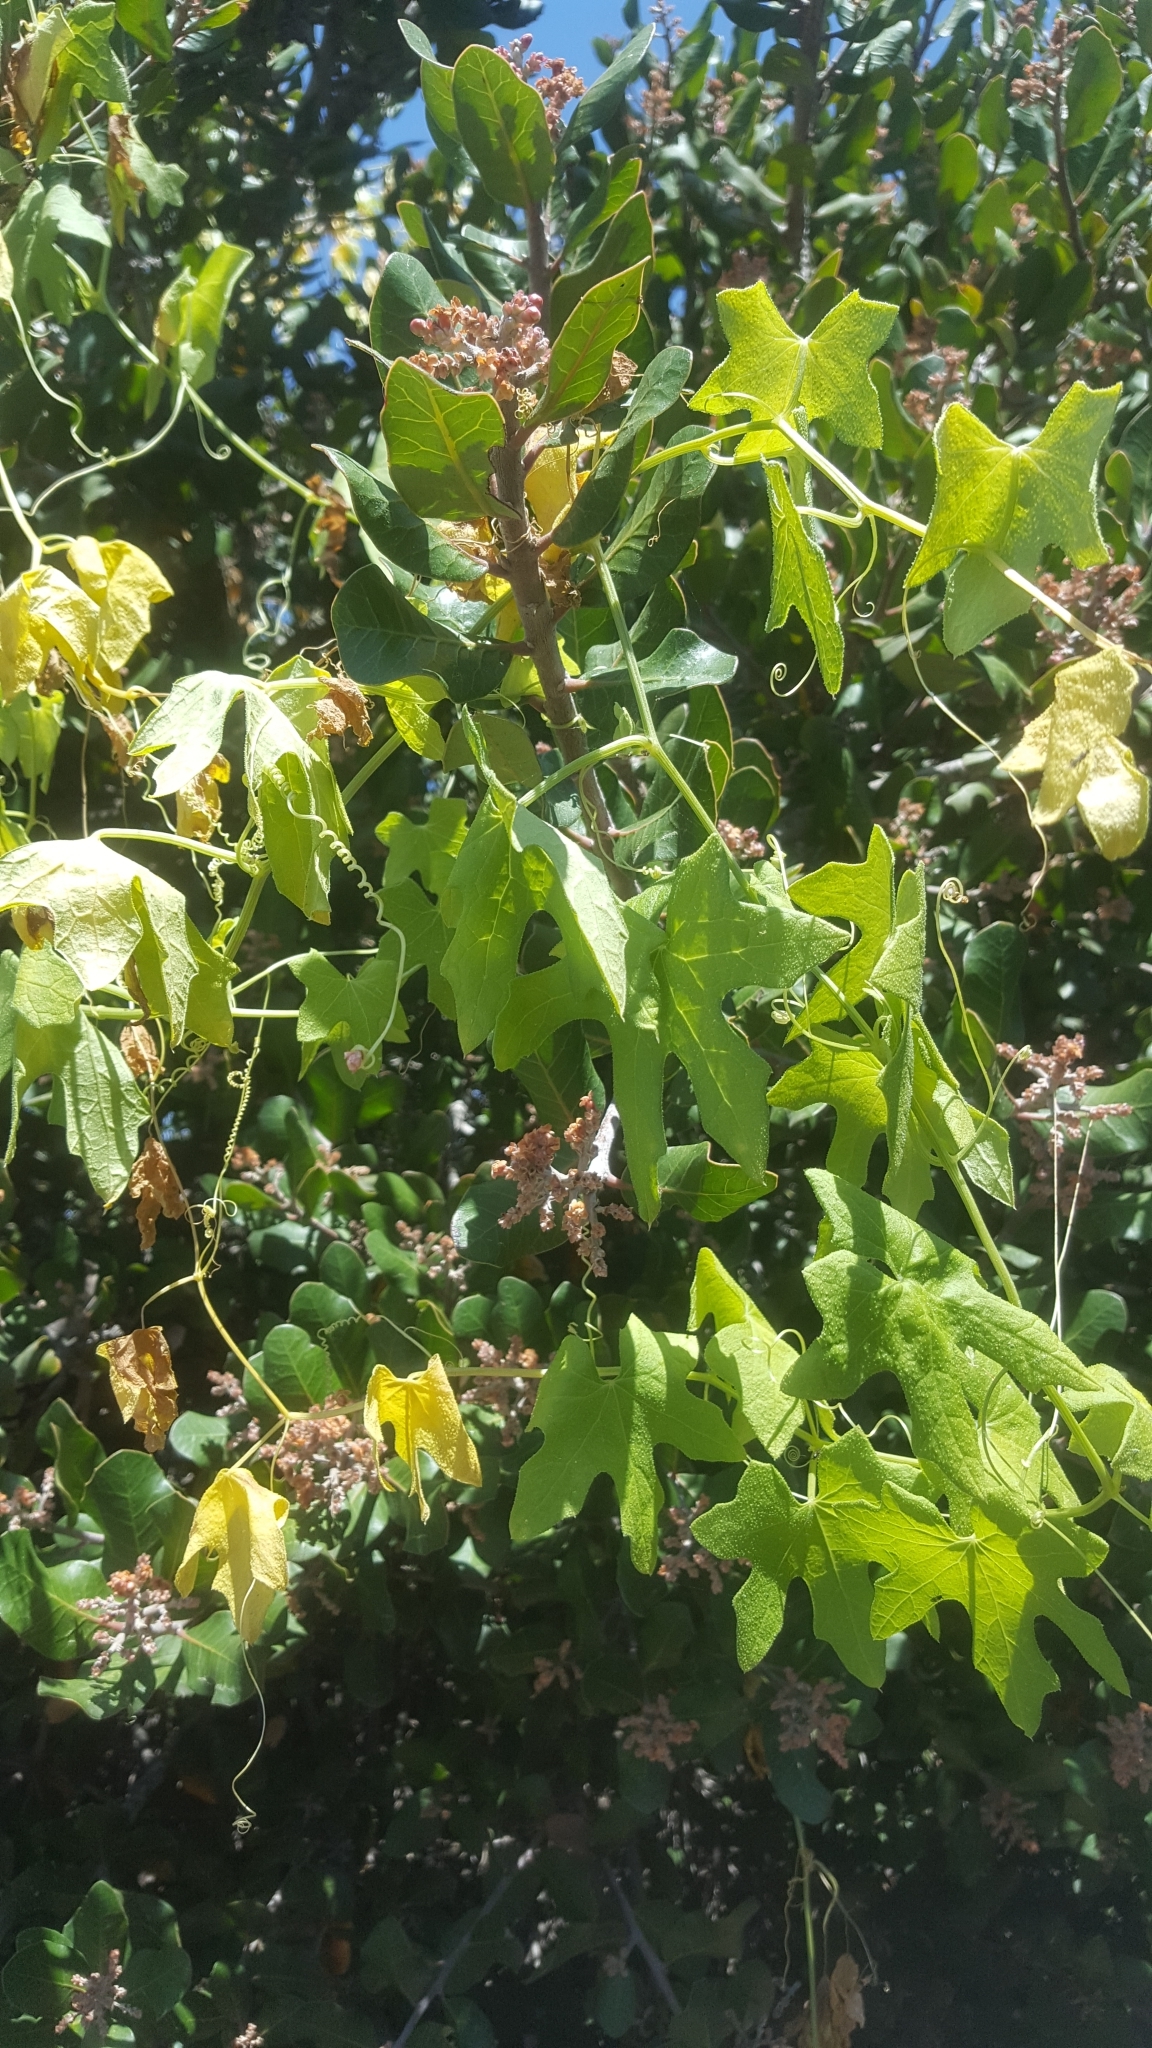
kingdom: Plantae
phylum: Tracheophyta
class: Magnoliopsida
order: Cucurbitales
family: Cucurbitaceae
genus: Marah
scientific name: Marah macrocarpa
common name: Cucamonga manroot
